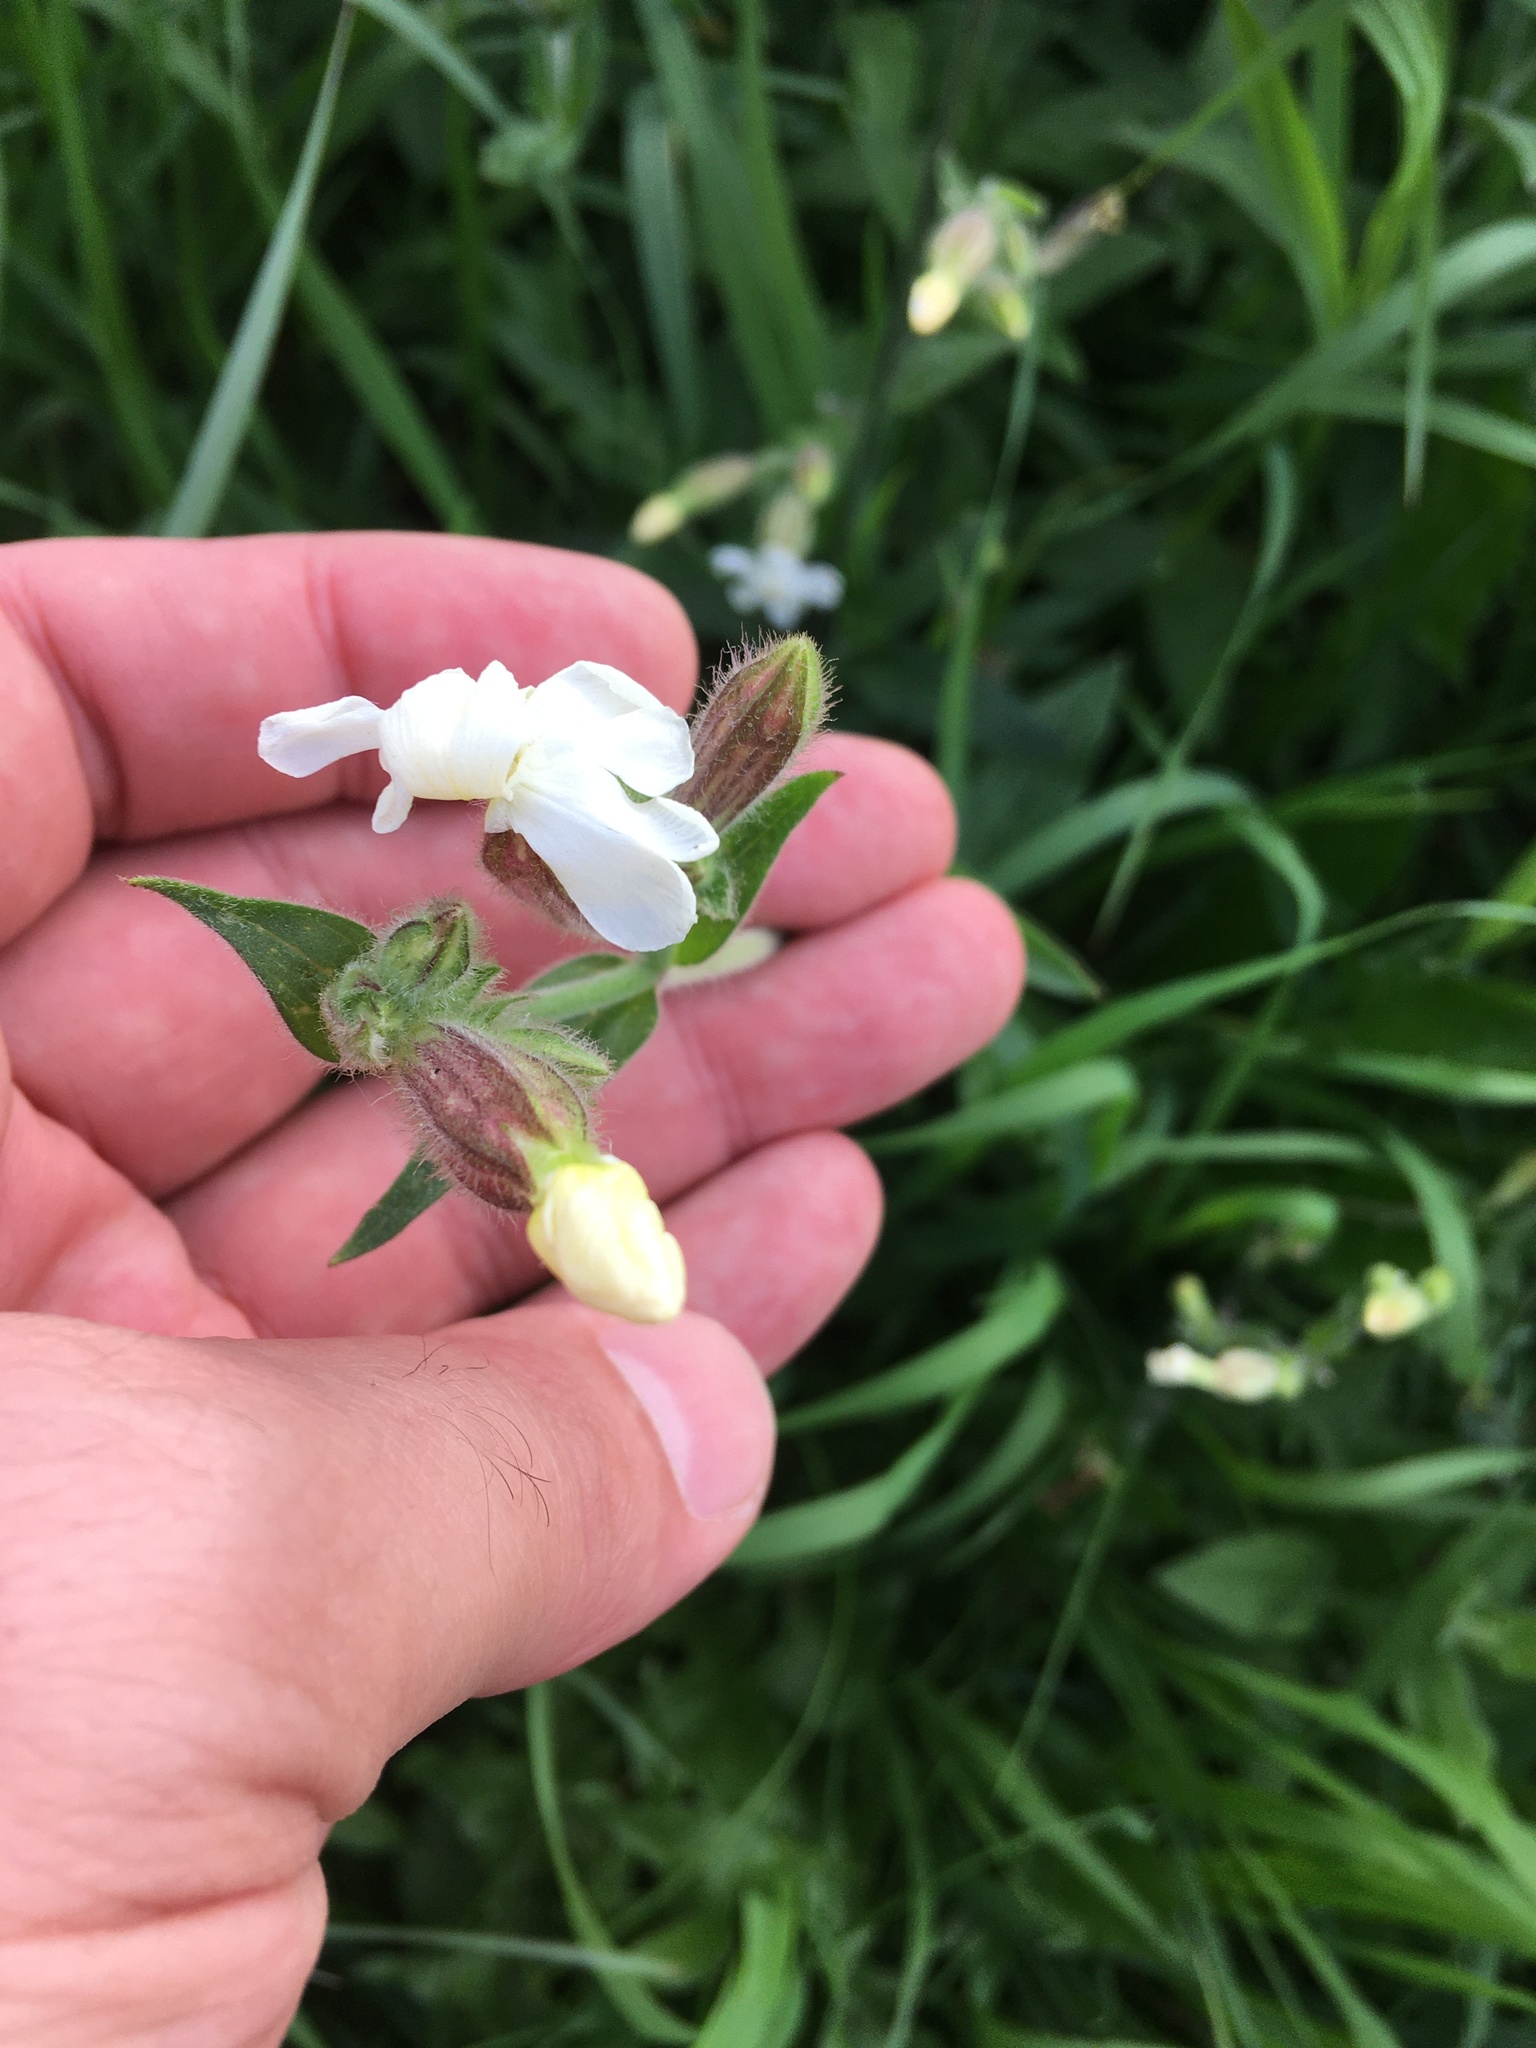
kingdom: Plantae
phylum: Tracheophyta
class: Magnoliopsida
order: Caryophyllales
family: Caryophyllaceae
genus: Silene
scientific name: Silene latifolia
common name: White campion
